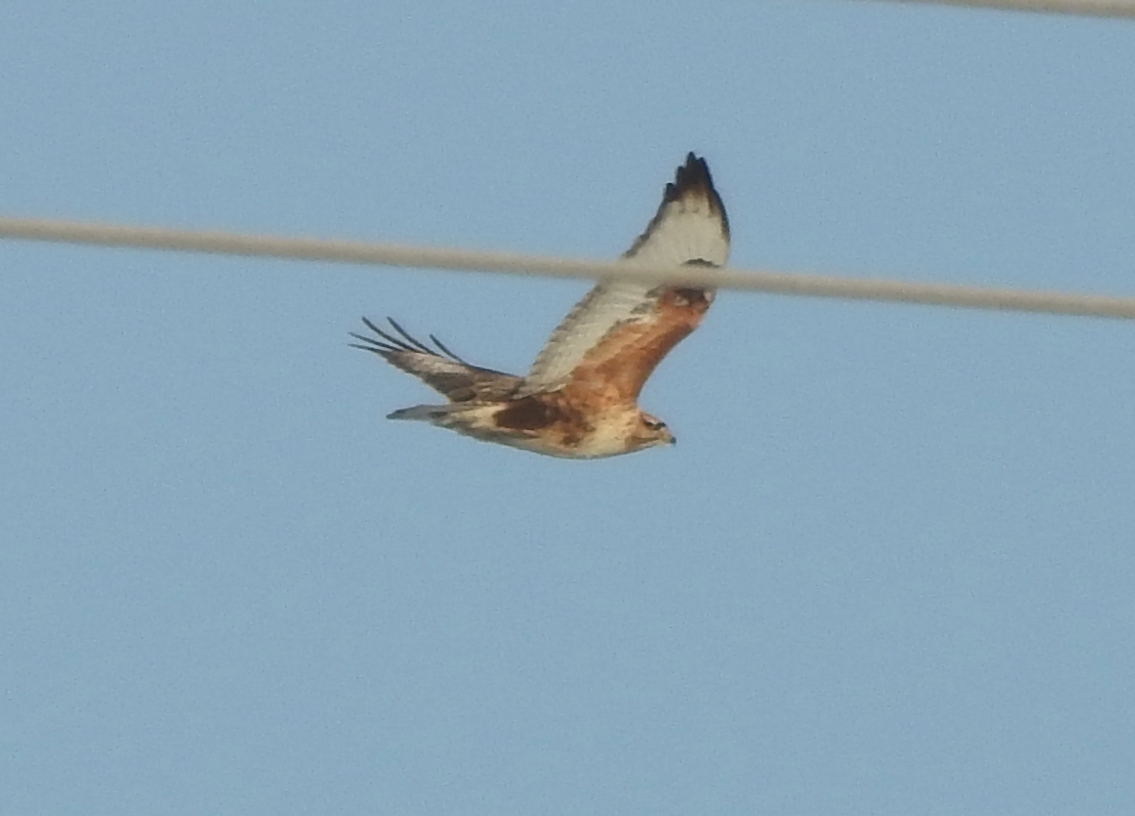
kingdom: Animalia
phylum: Chordata
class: Aves
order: Accipitriformes
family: Accipitridae
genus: Buteo
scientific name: Buteo hemilasius
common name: Upland buzzard
